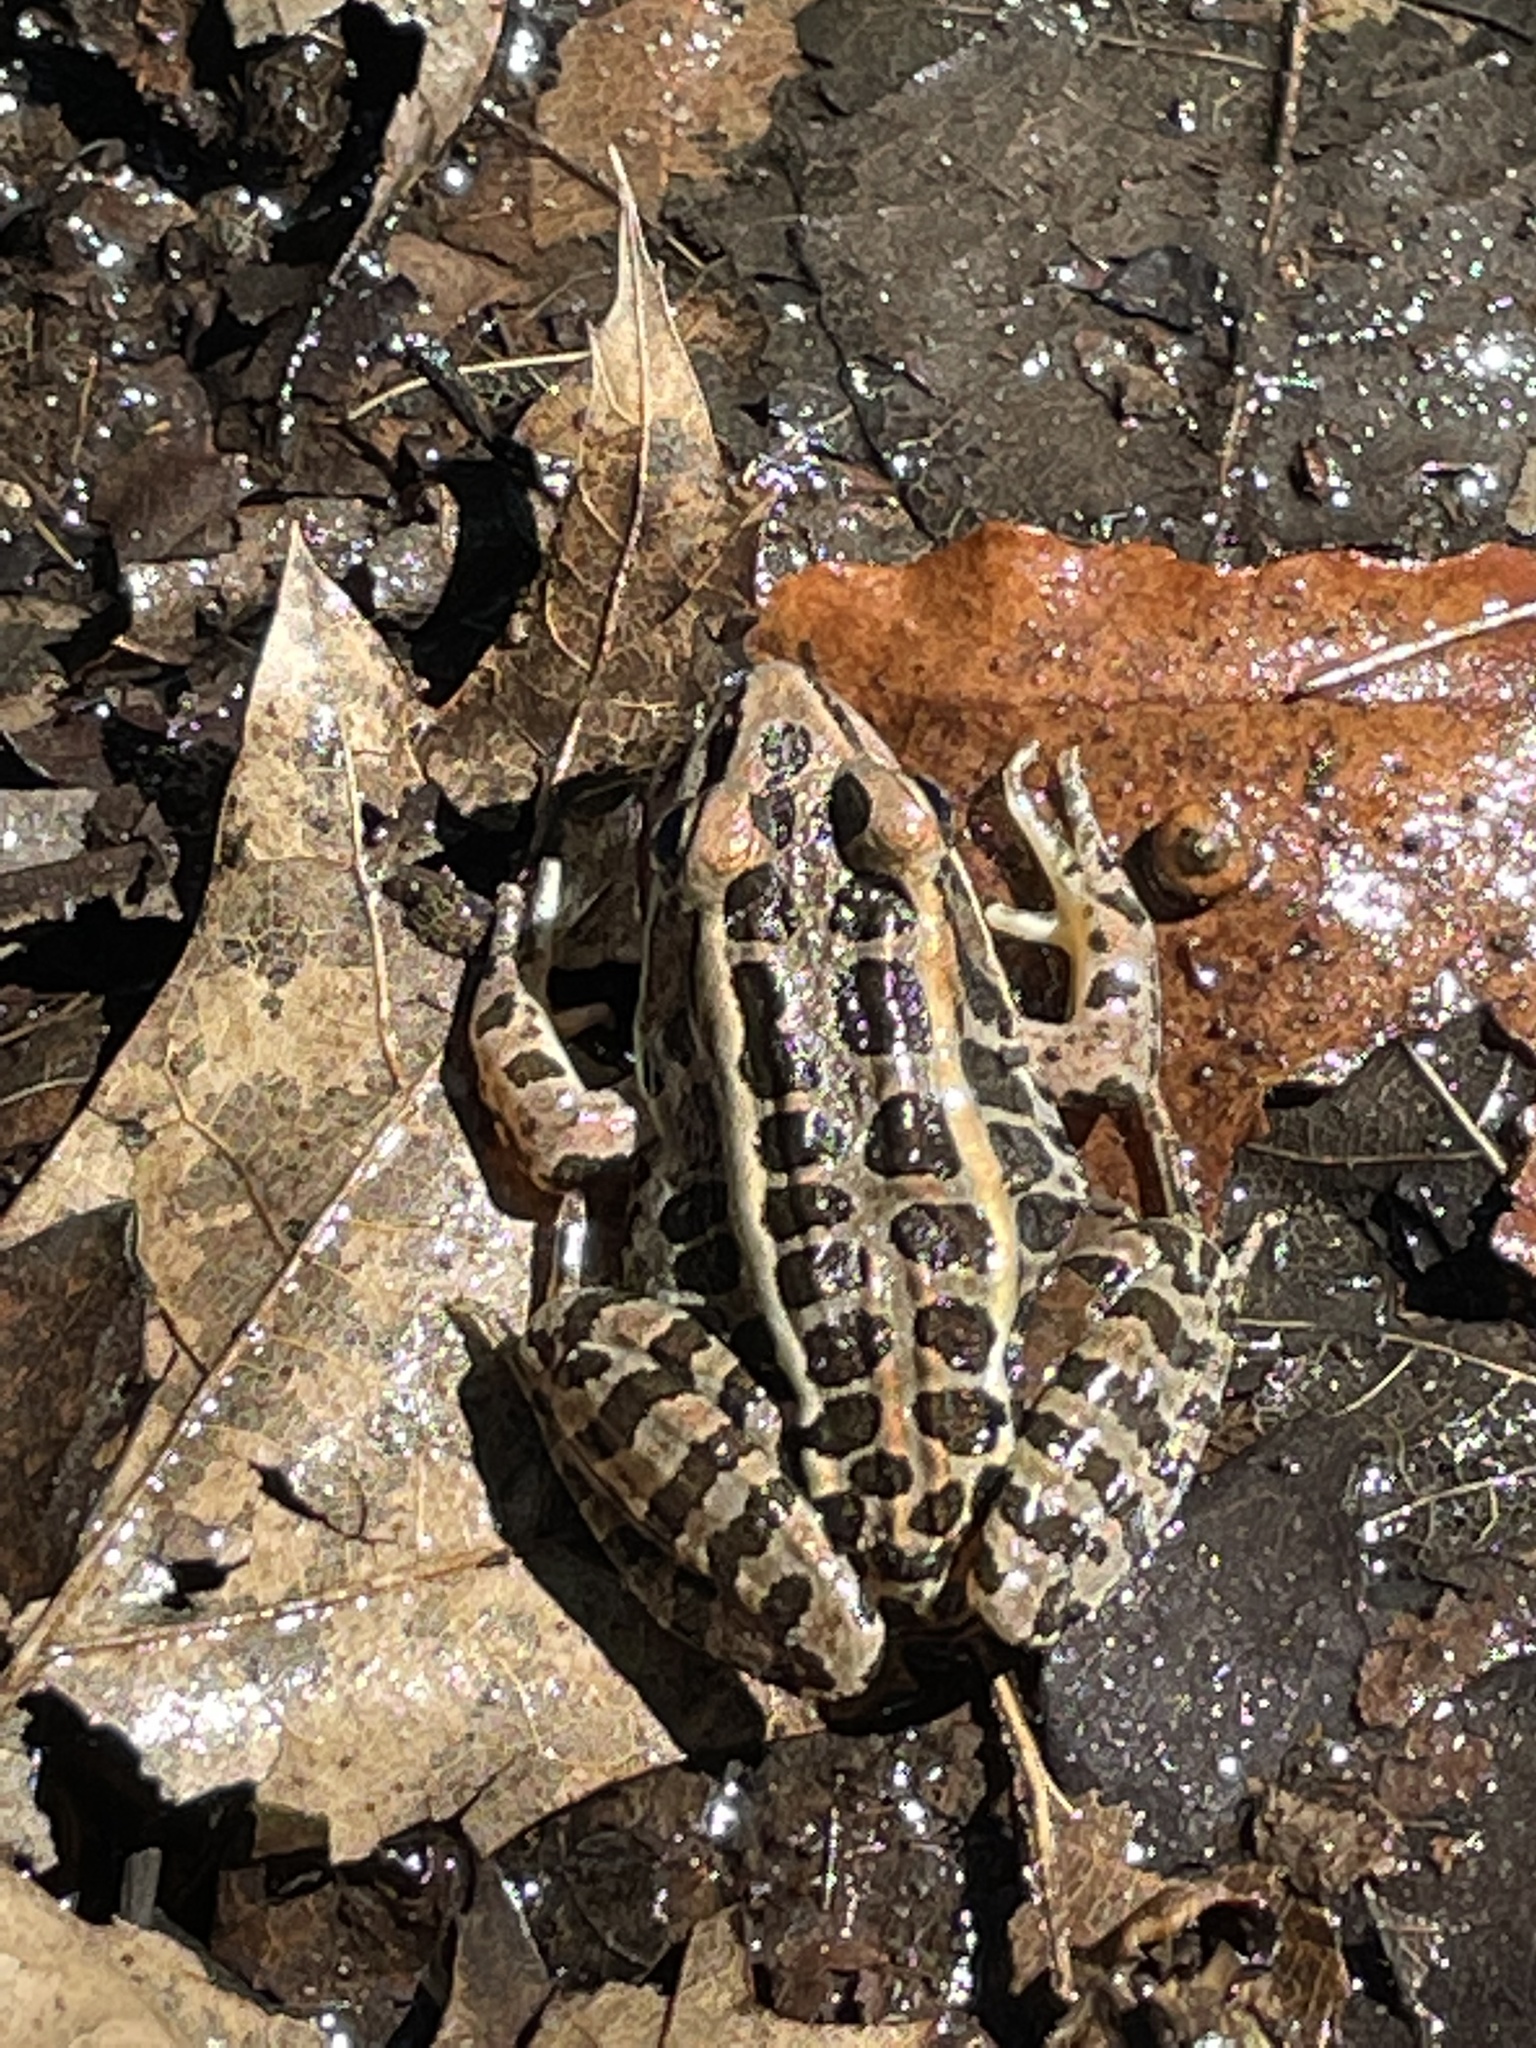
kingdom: Animalia
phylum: Chordata
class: Amphibia
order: Anura
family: Ranidae
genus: Lithobates
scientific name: Lithobates palustris
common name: Pickerel frog
